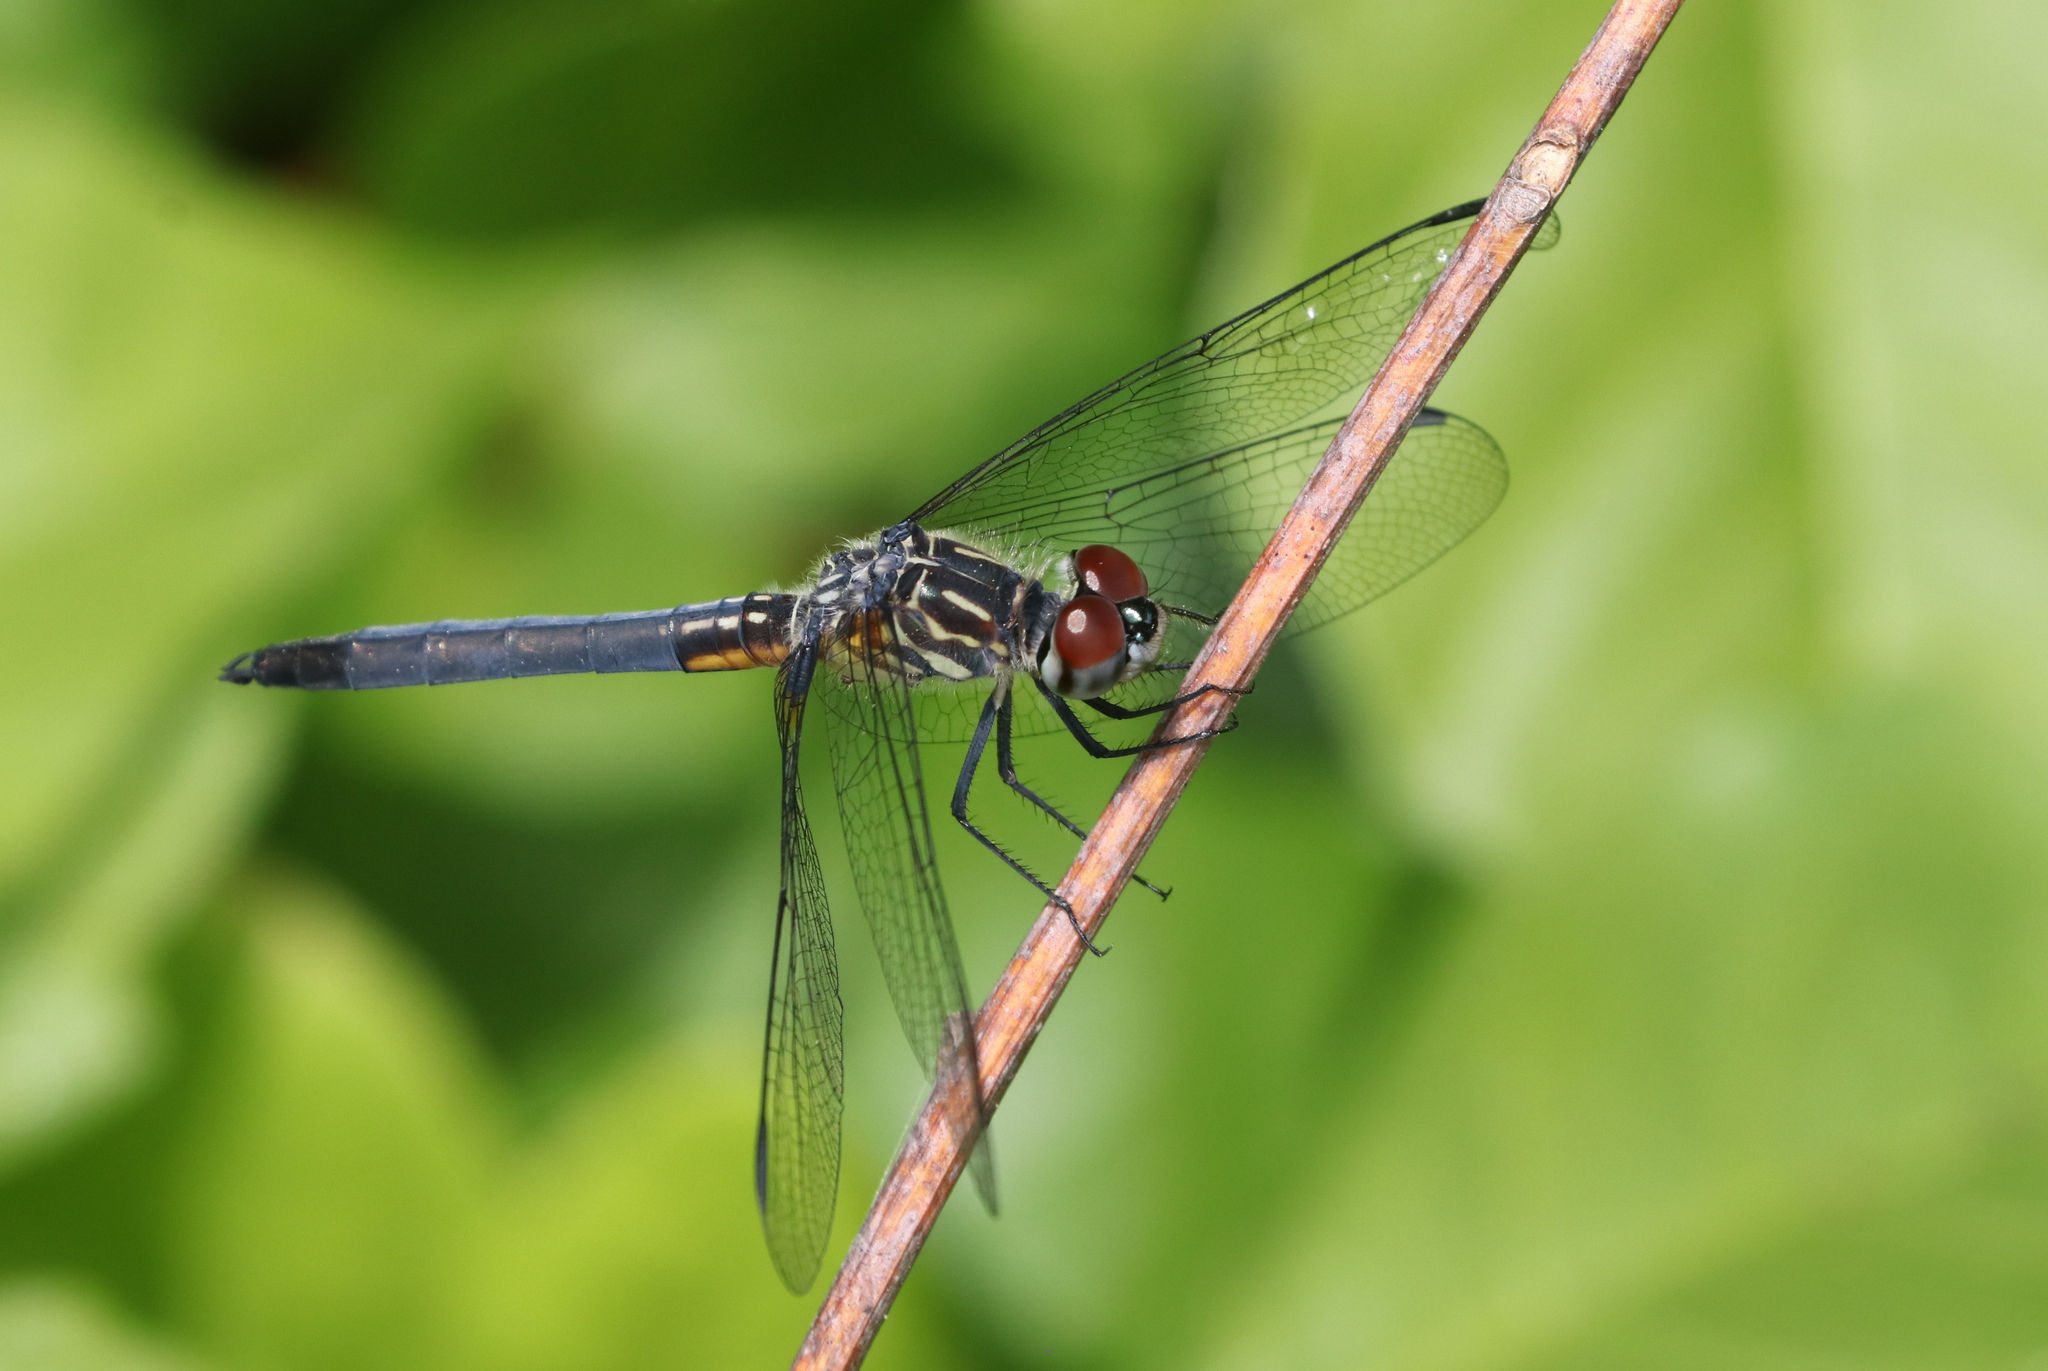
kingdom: Animalia
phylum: Arthropoda
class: Insecta
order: Odonata
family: Libellulidae
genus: Pachydiplax
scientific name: Pachydiplax longipennis
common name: Blue dasher
